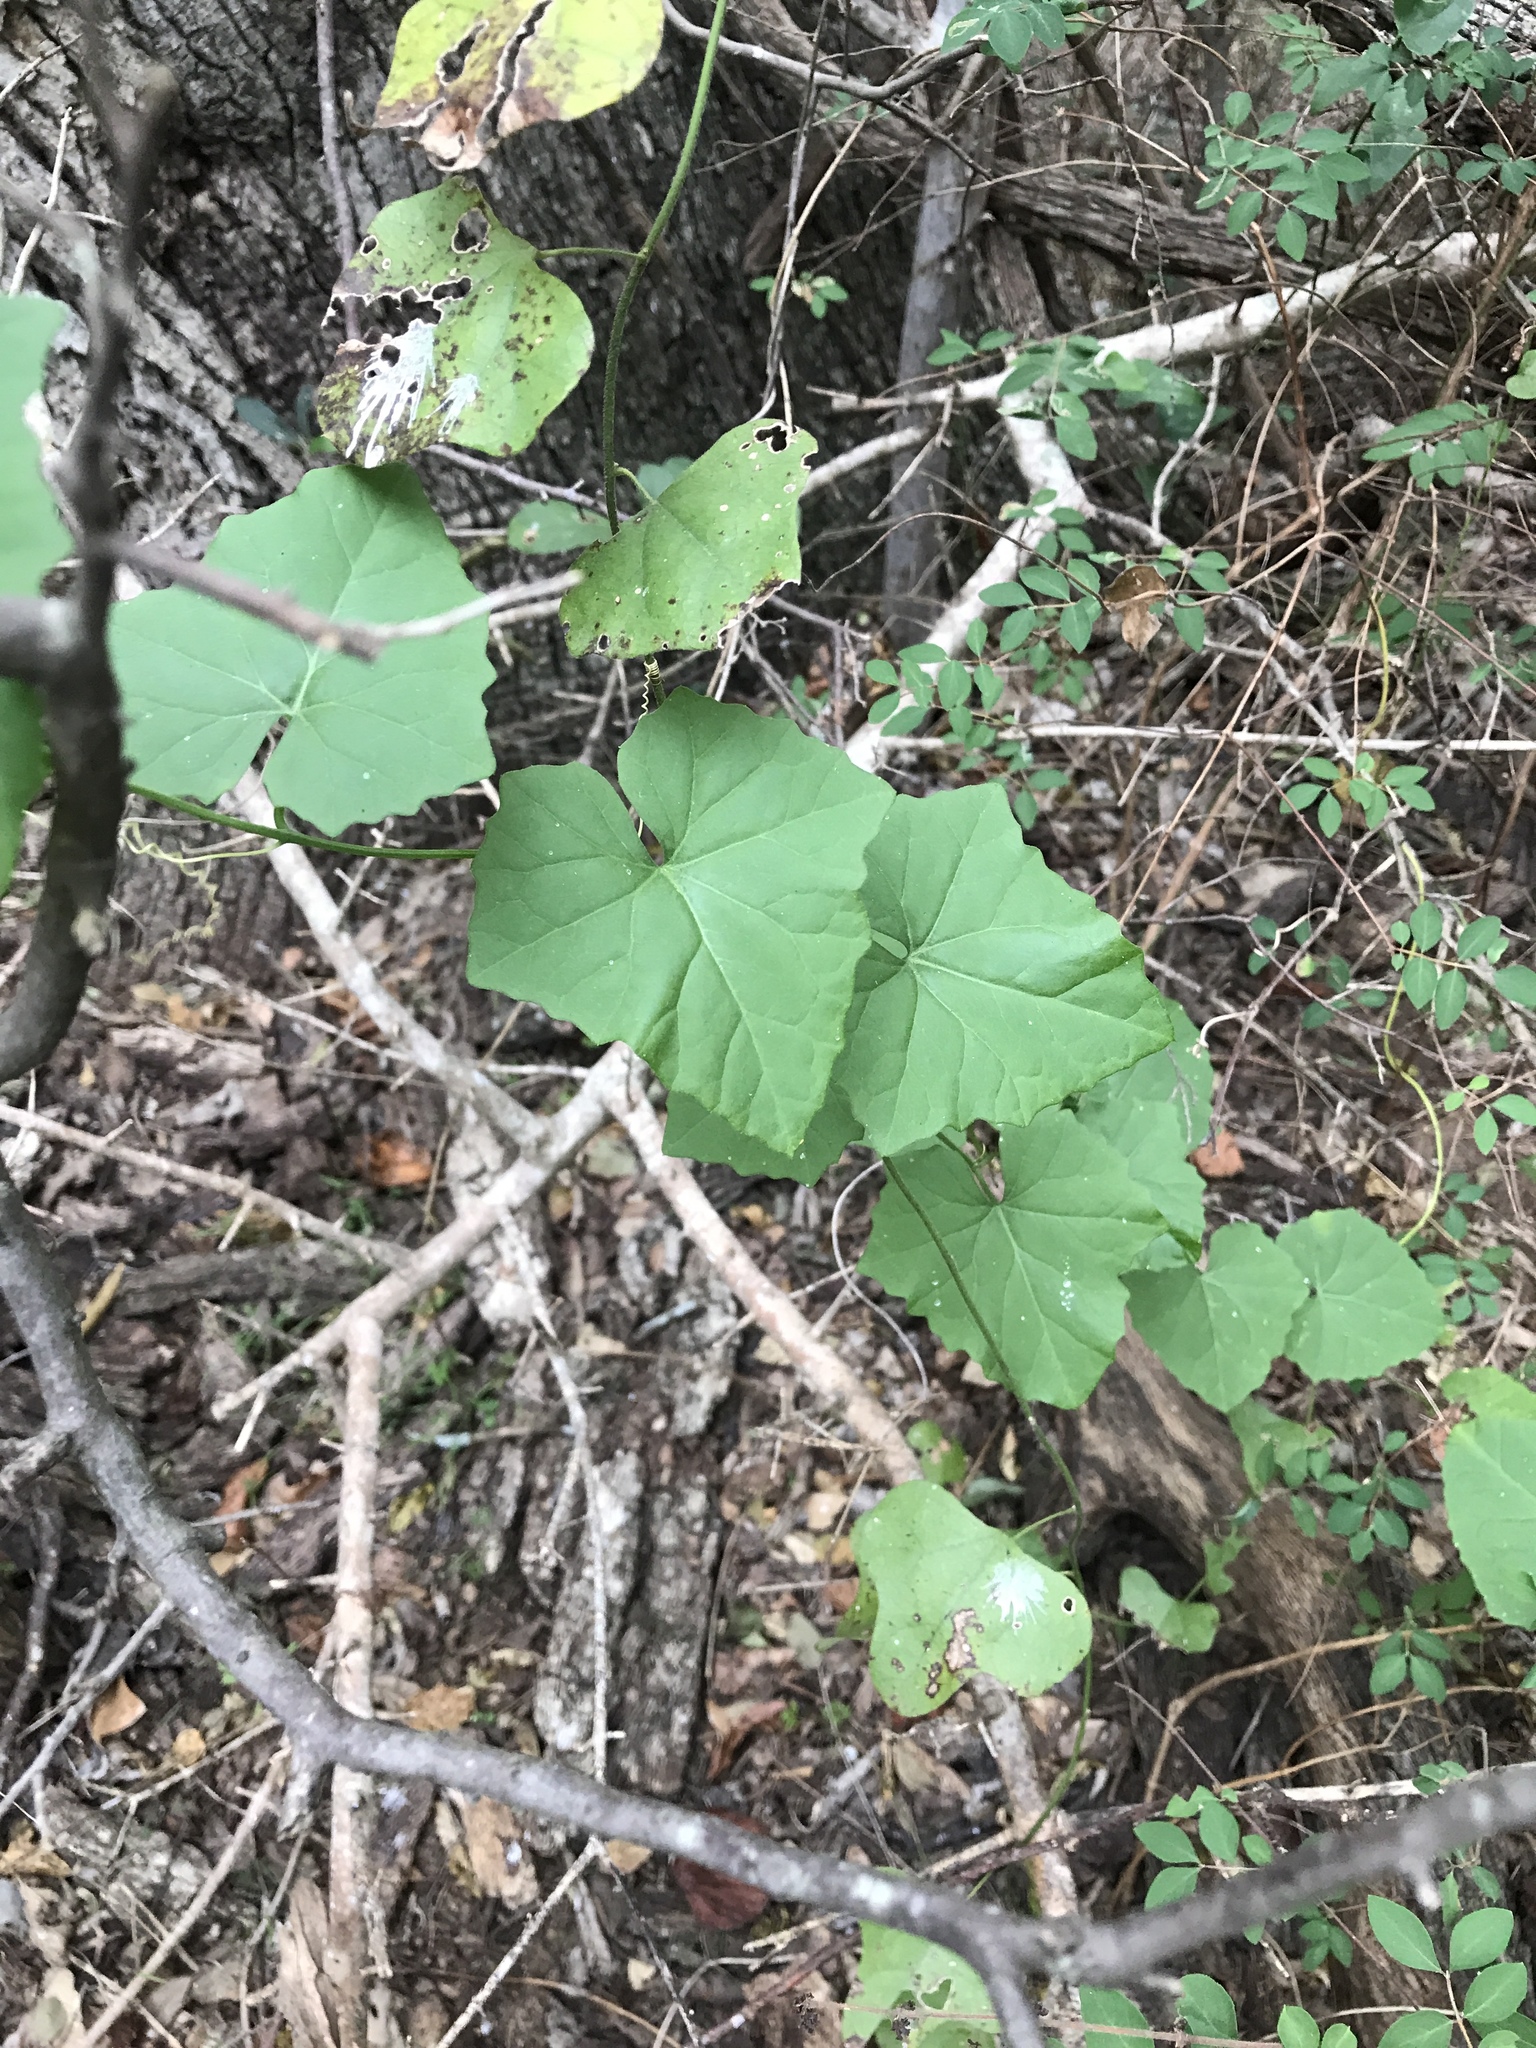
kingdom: Plantae
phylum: Tracheophyta
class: Magnoliopsida
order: Cucurbitales
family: Cucurbitaceae
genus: Ibervillea
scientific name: Ibervillea lindheimeri
